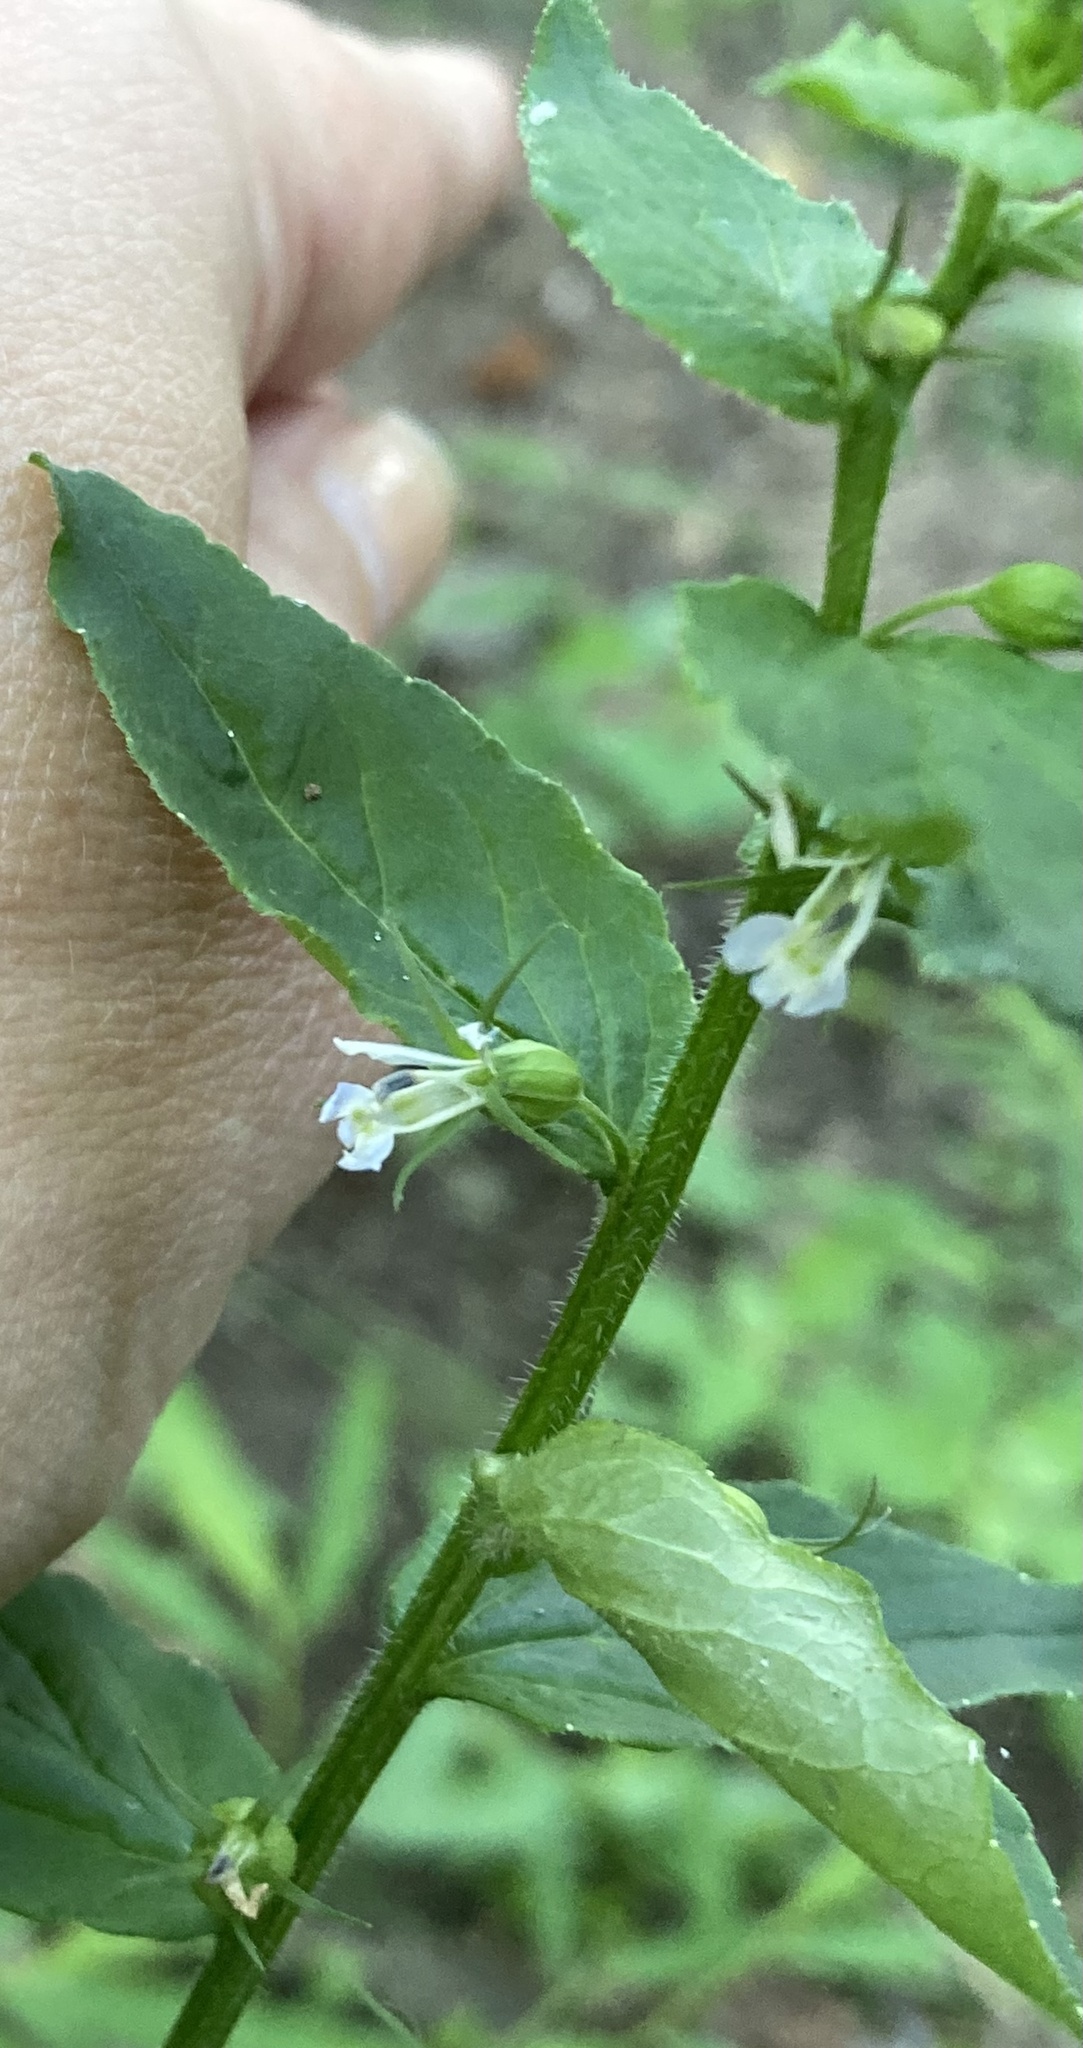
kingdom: Plantae
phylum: Tracheophyta
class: Magnoliopsida
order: Asterales
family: Campanulaceae
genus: Lobelia
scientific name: Lobelia inflata
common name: Indian tobacco
